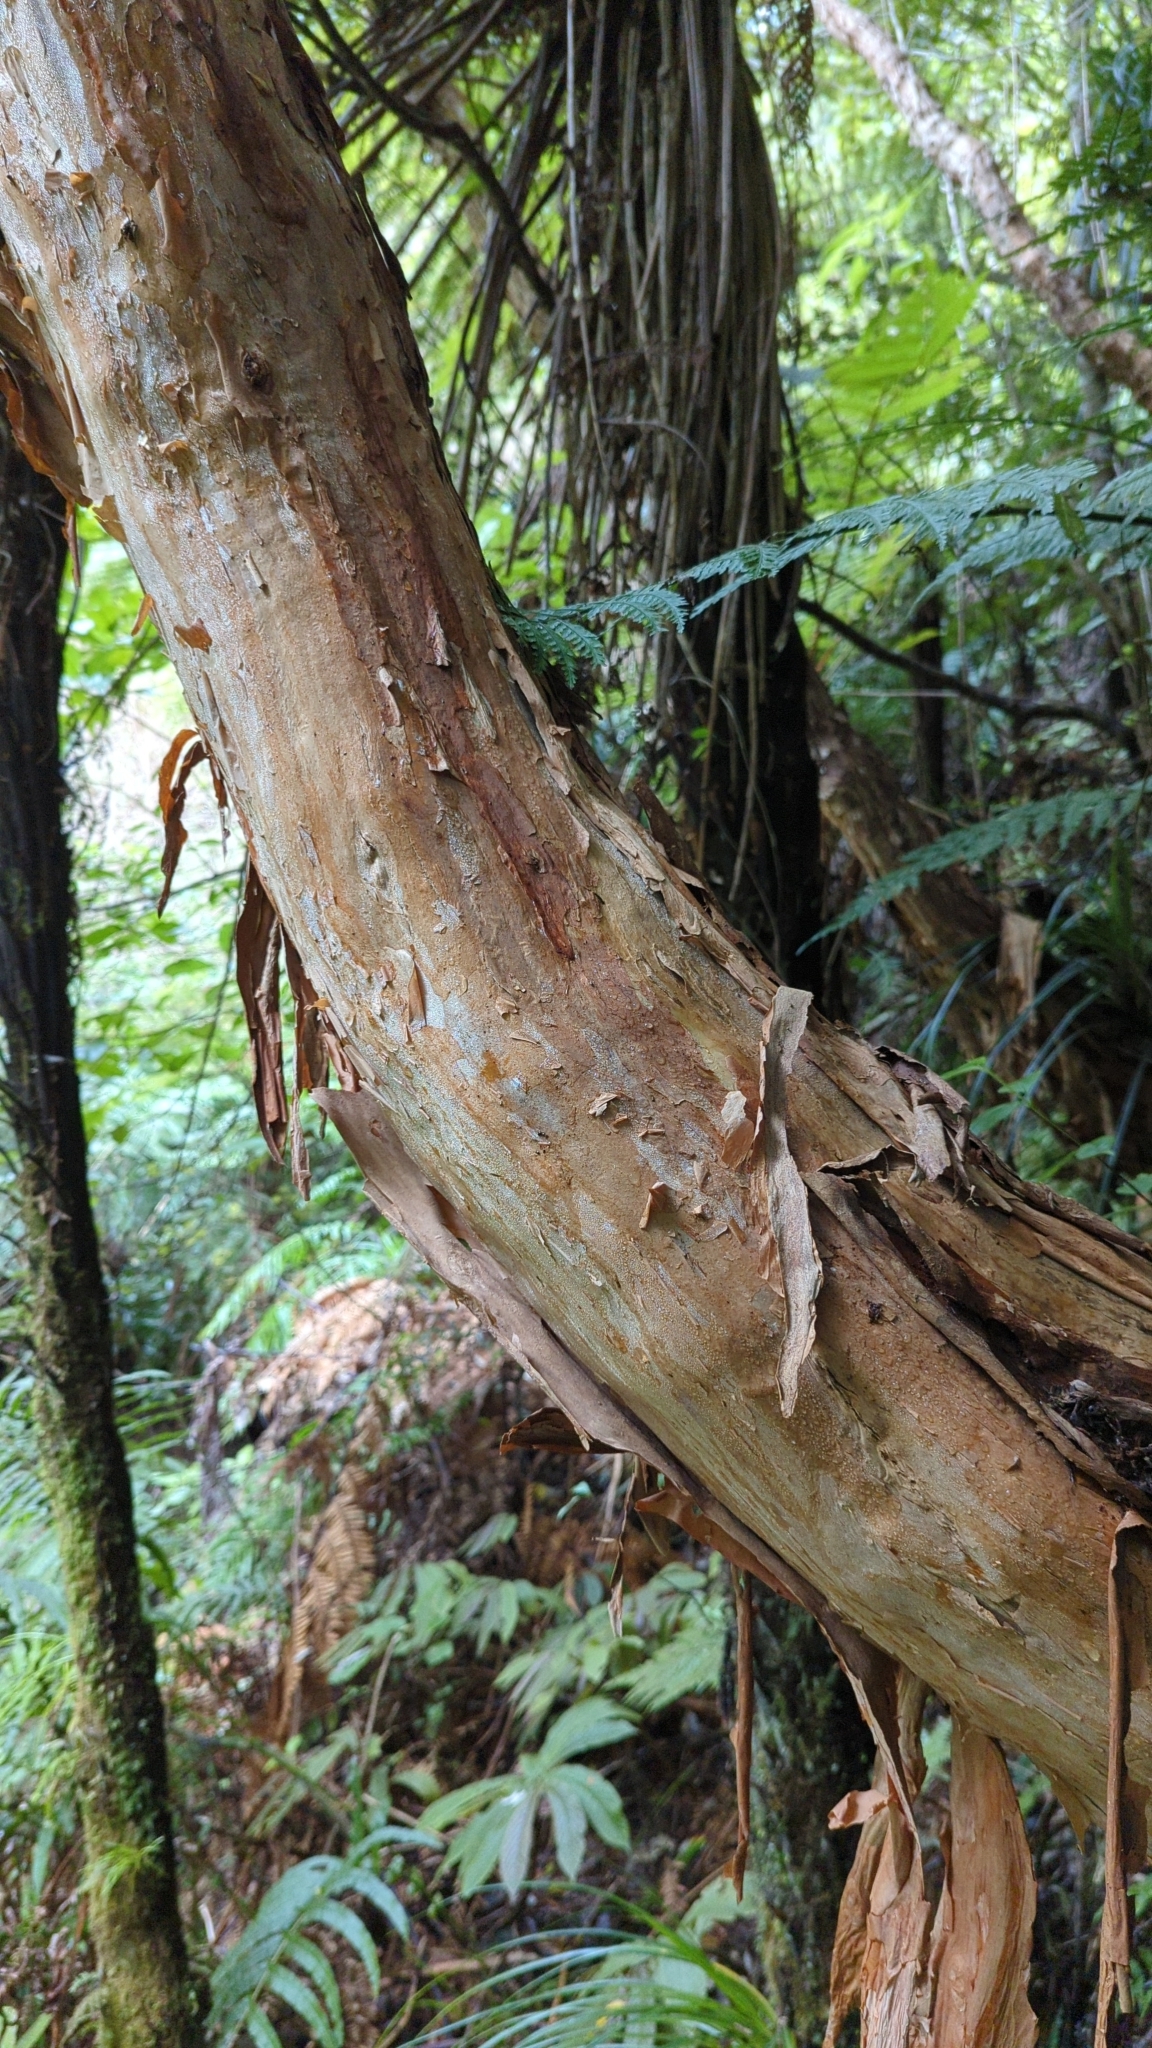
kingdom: Plantae
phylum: Tracheophyta
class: Magnoliopsida
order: Myrtales
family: Onagraceae
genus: Fuchsia
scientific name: Fuchsia excorticata
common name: Tree fuchsia
